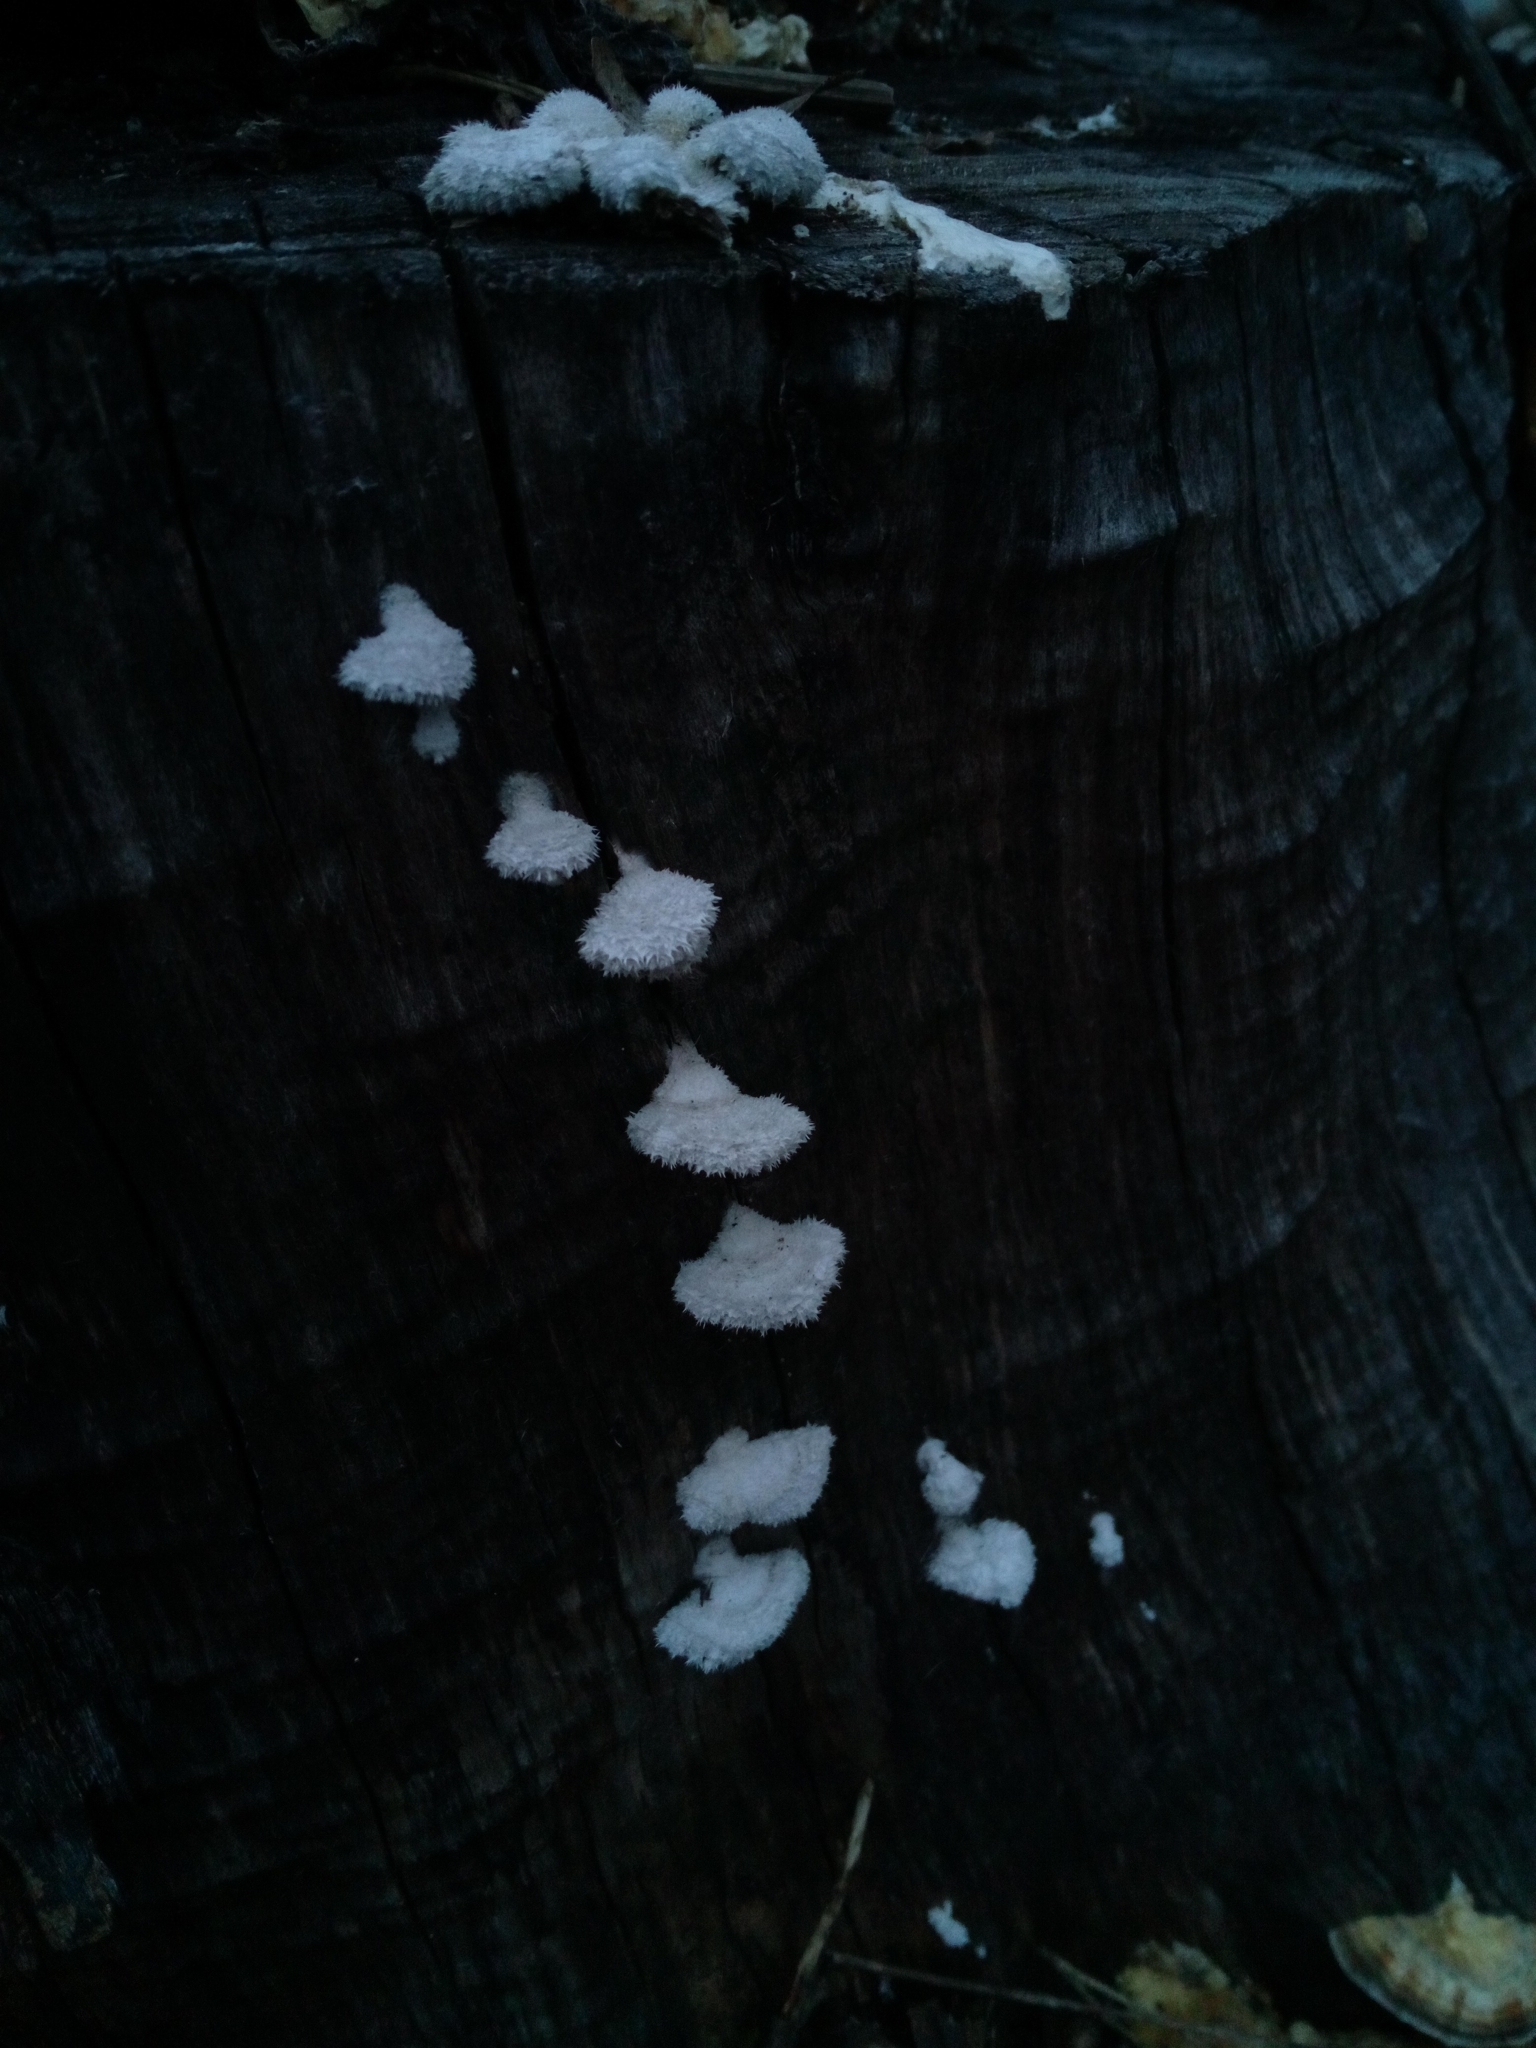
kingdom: Fungi
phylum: Basidiomycota
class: Agaricomycetes
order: Agaricales
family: Schizophyllaceae
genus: Schizophyllum
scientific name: Schizophyllum commune
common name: Common porecrust
